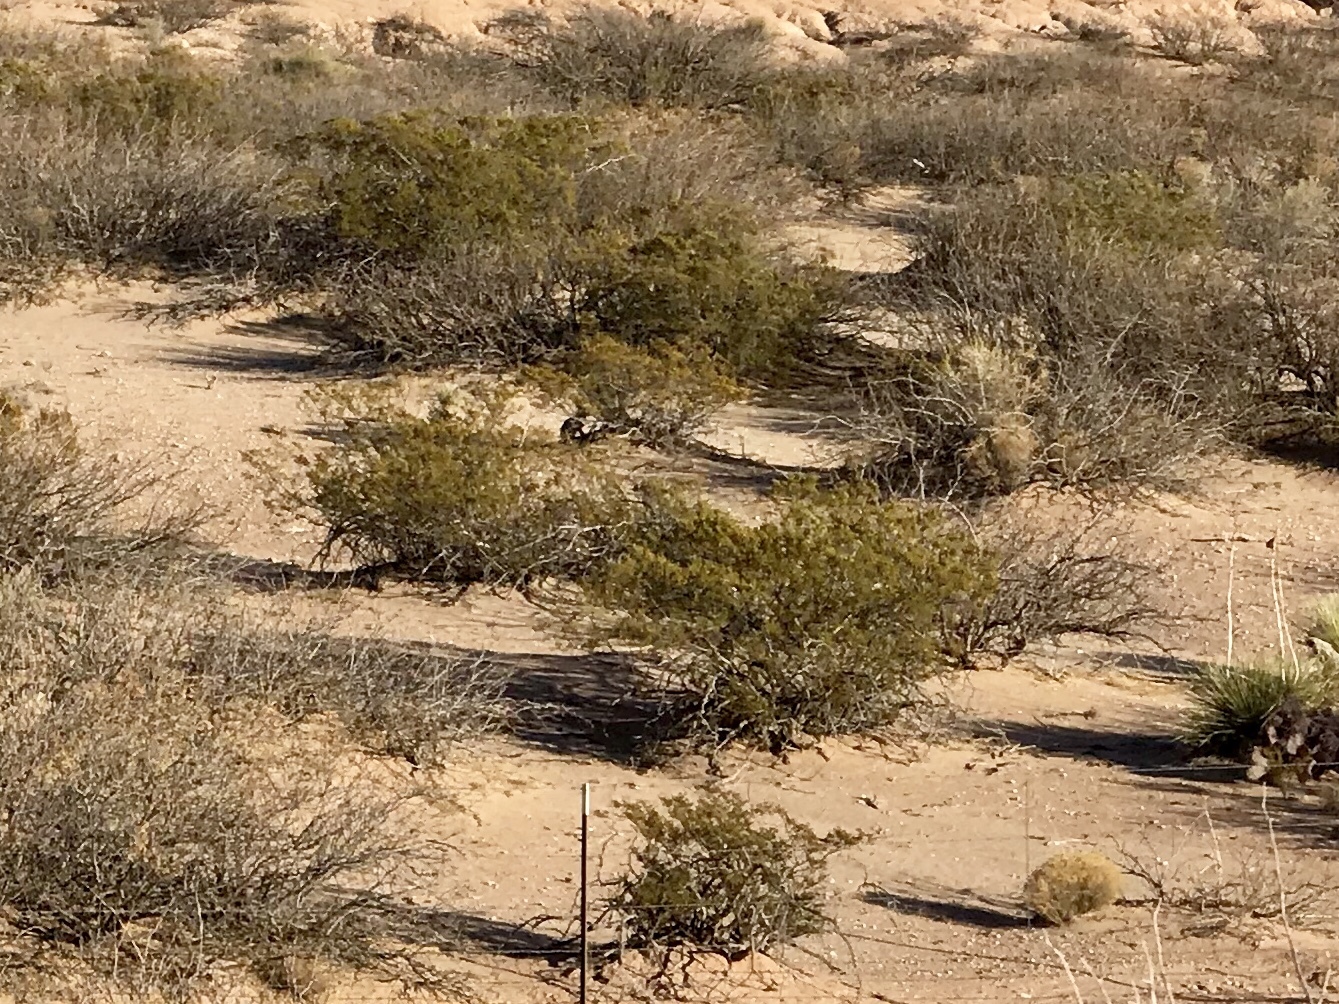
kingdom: Plantae
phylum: Tracheophyta
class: Magnoliopsida
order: Zygophyllales
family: Zygophyllaceae
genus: Larrea
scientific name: Larrea tridentata
